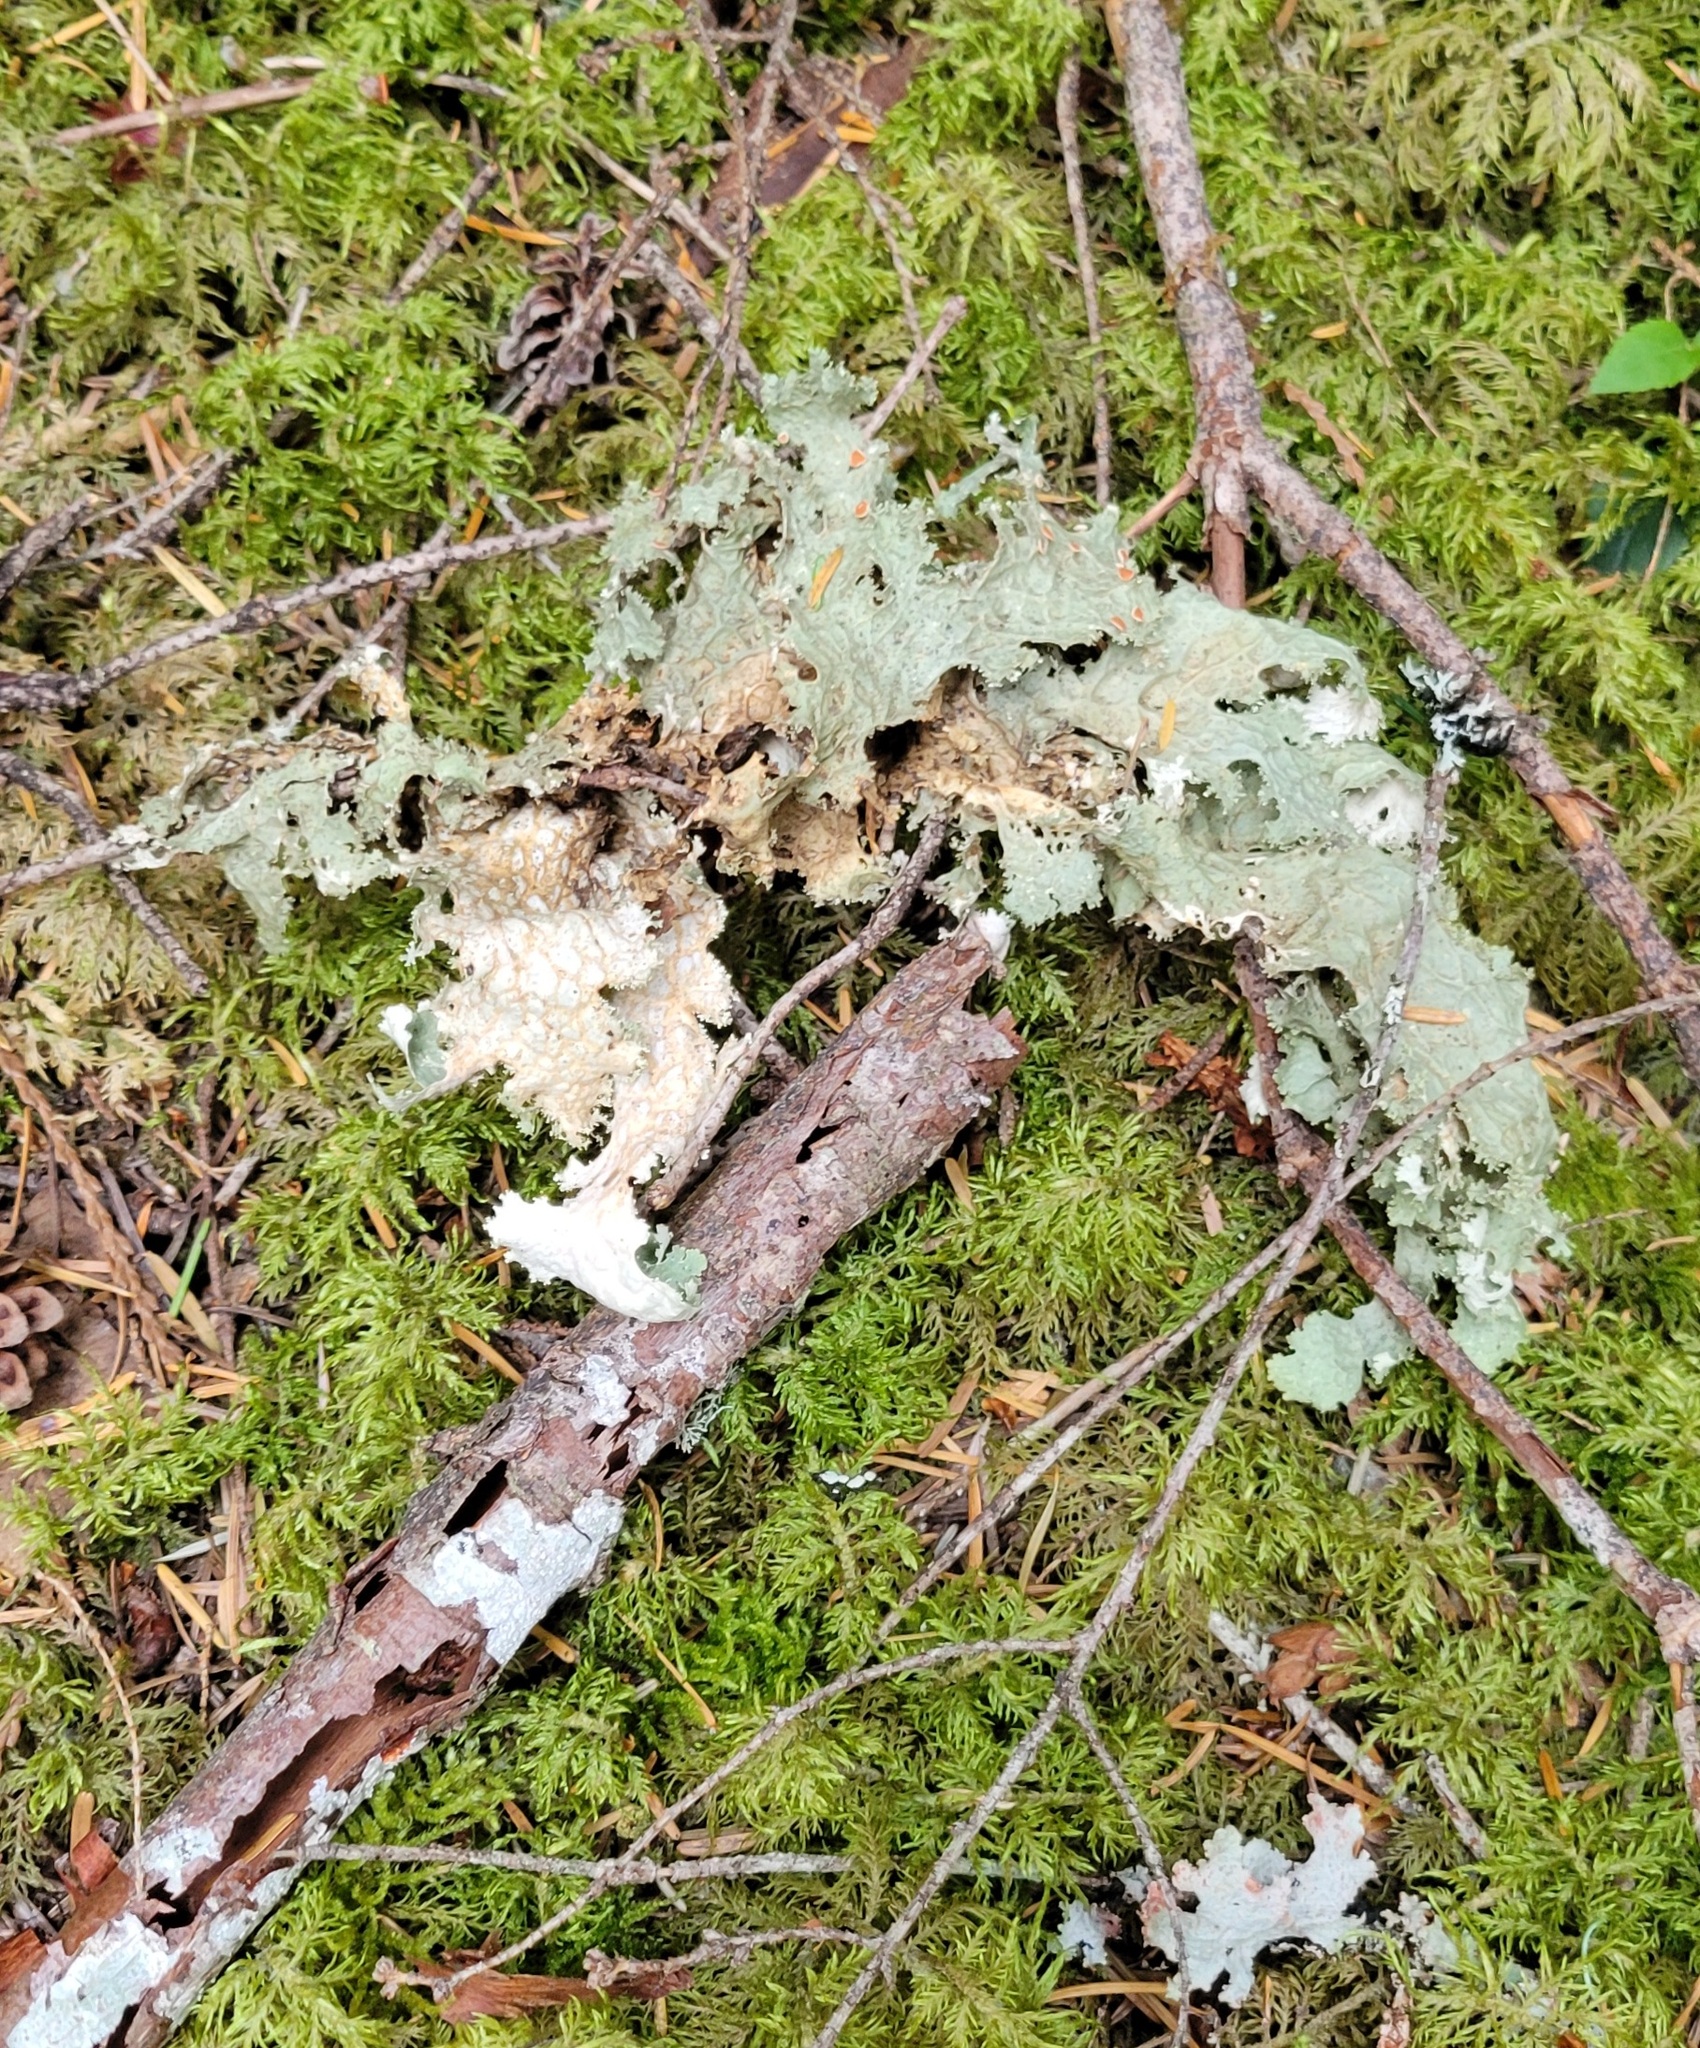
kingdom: Fungi
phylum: Ascomycota
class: Lecanoromycetes
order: Peltigerales
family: Lobariaceae
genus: Lobaria
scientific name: Lobaria oregana
